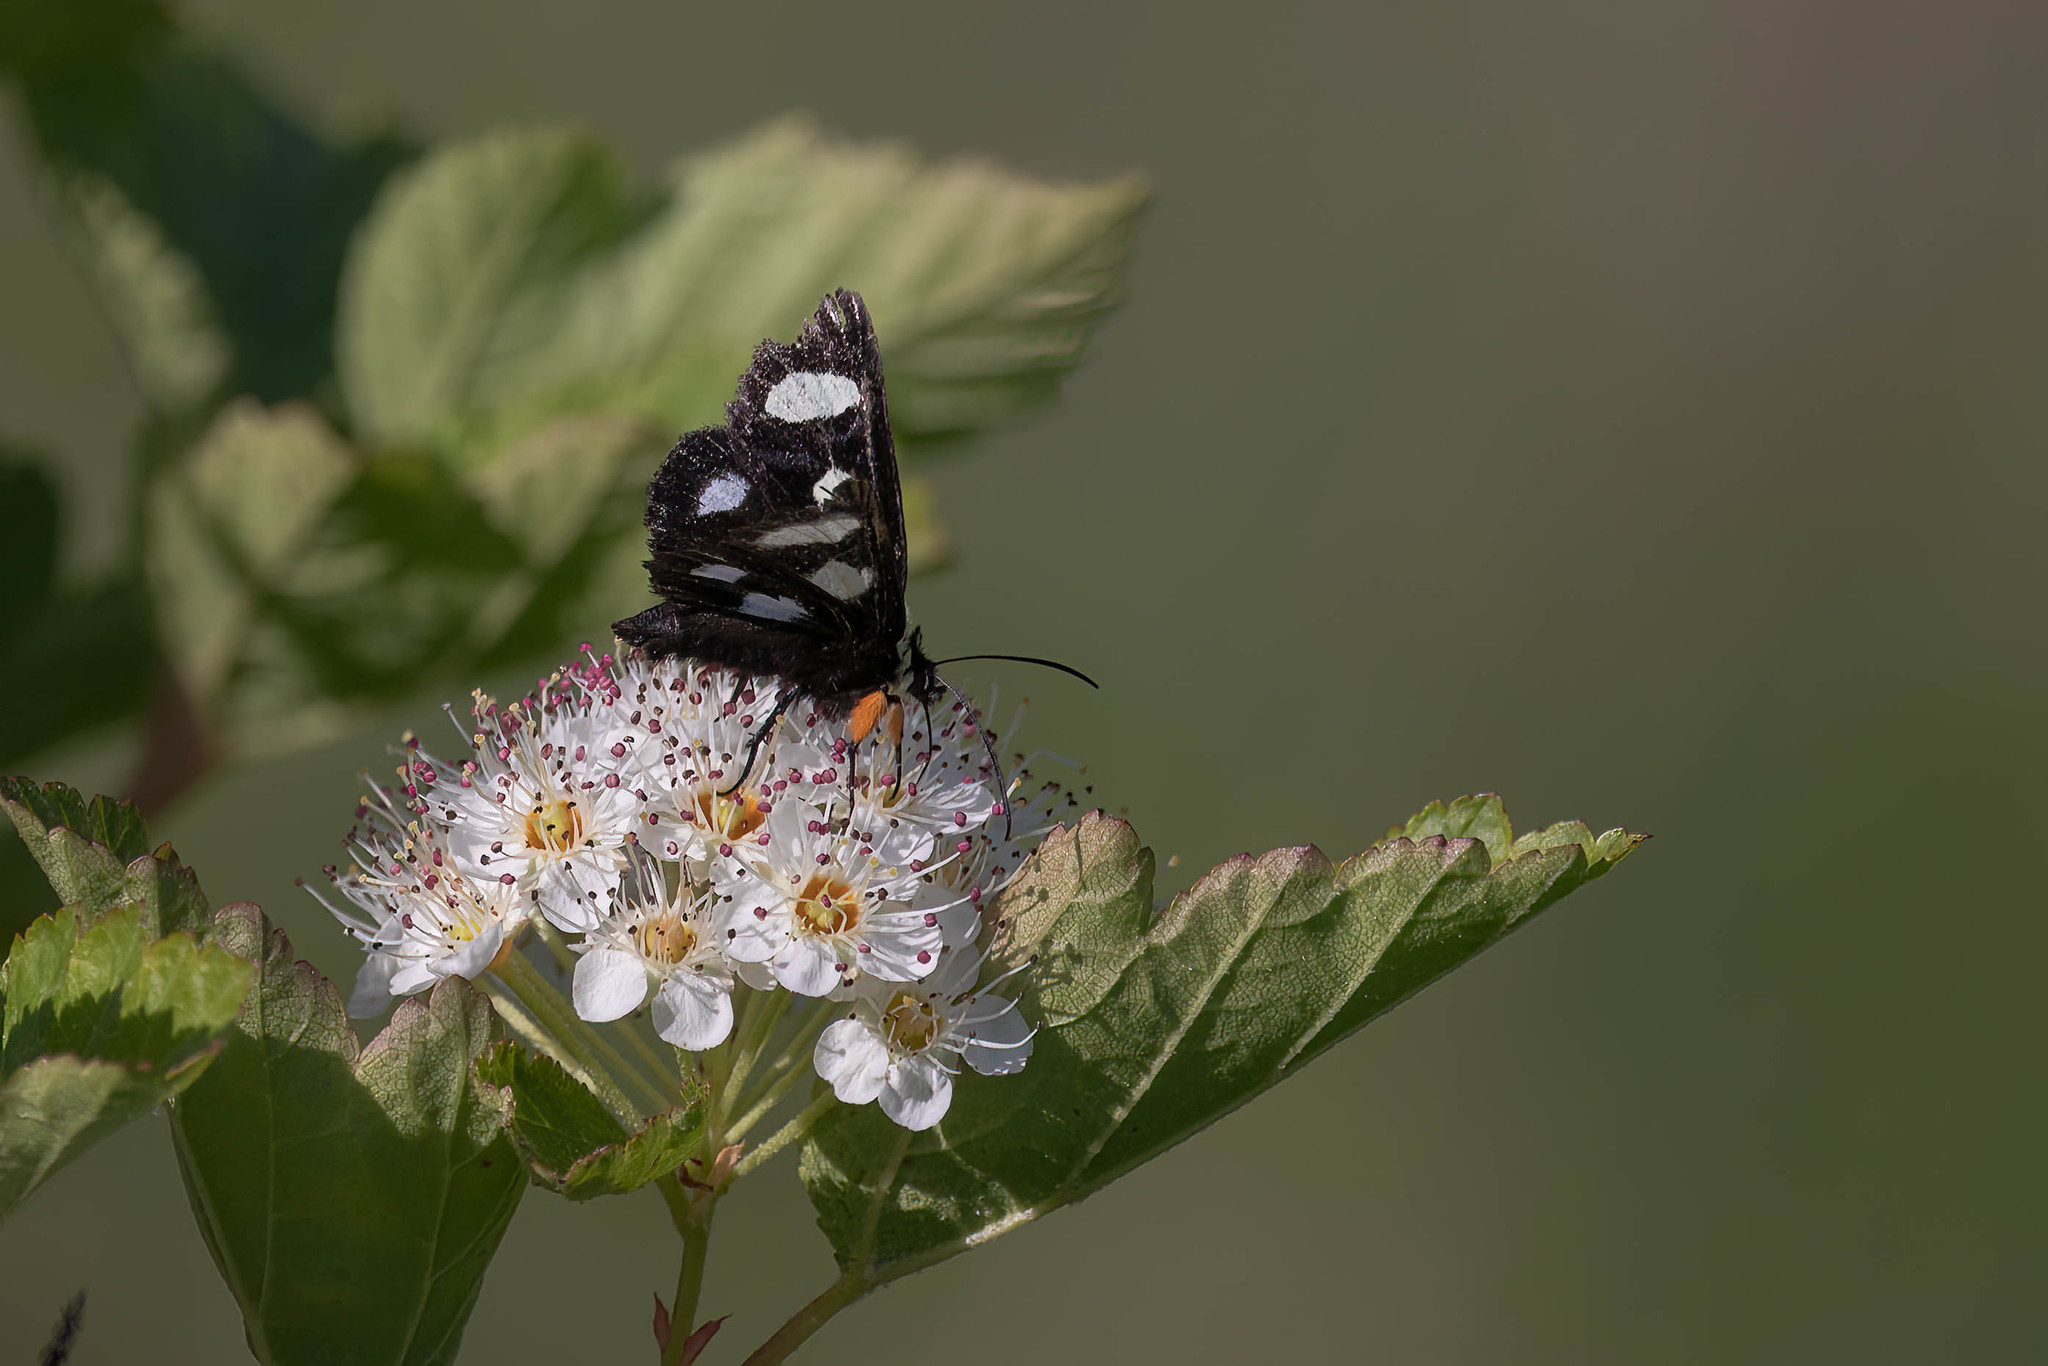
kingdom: Animalia
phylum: Arthropoda
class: Insecta
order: Lepidoptera
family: Noctuidae
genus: Alypia
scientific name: Alypia octomaculata
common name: Eight-spotted forester
